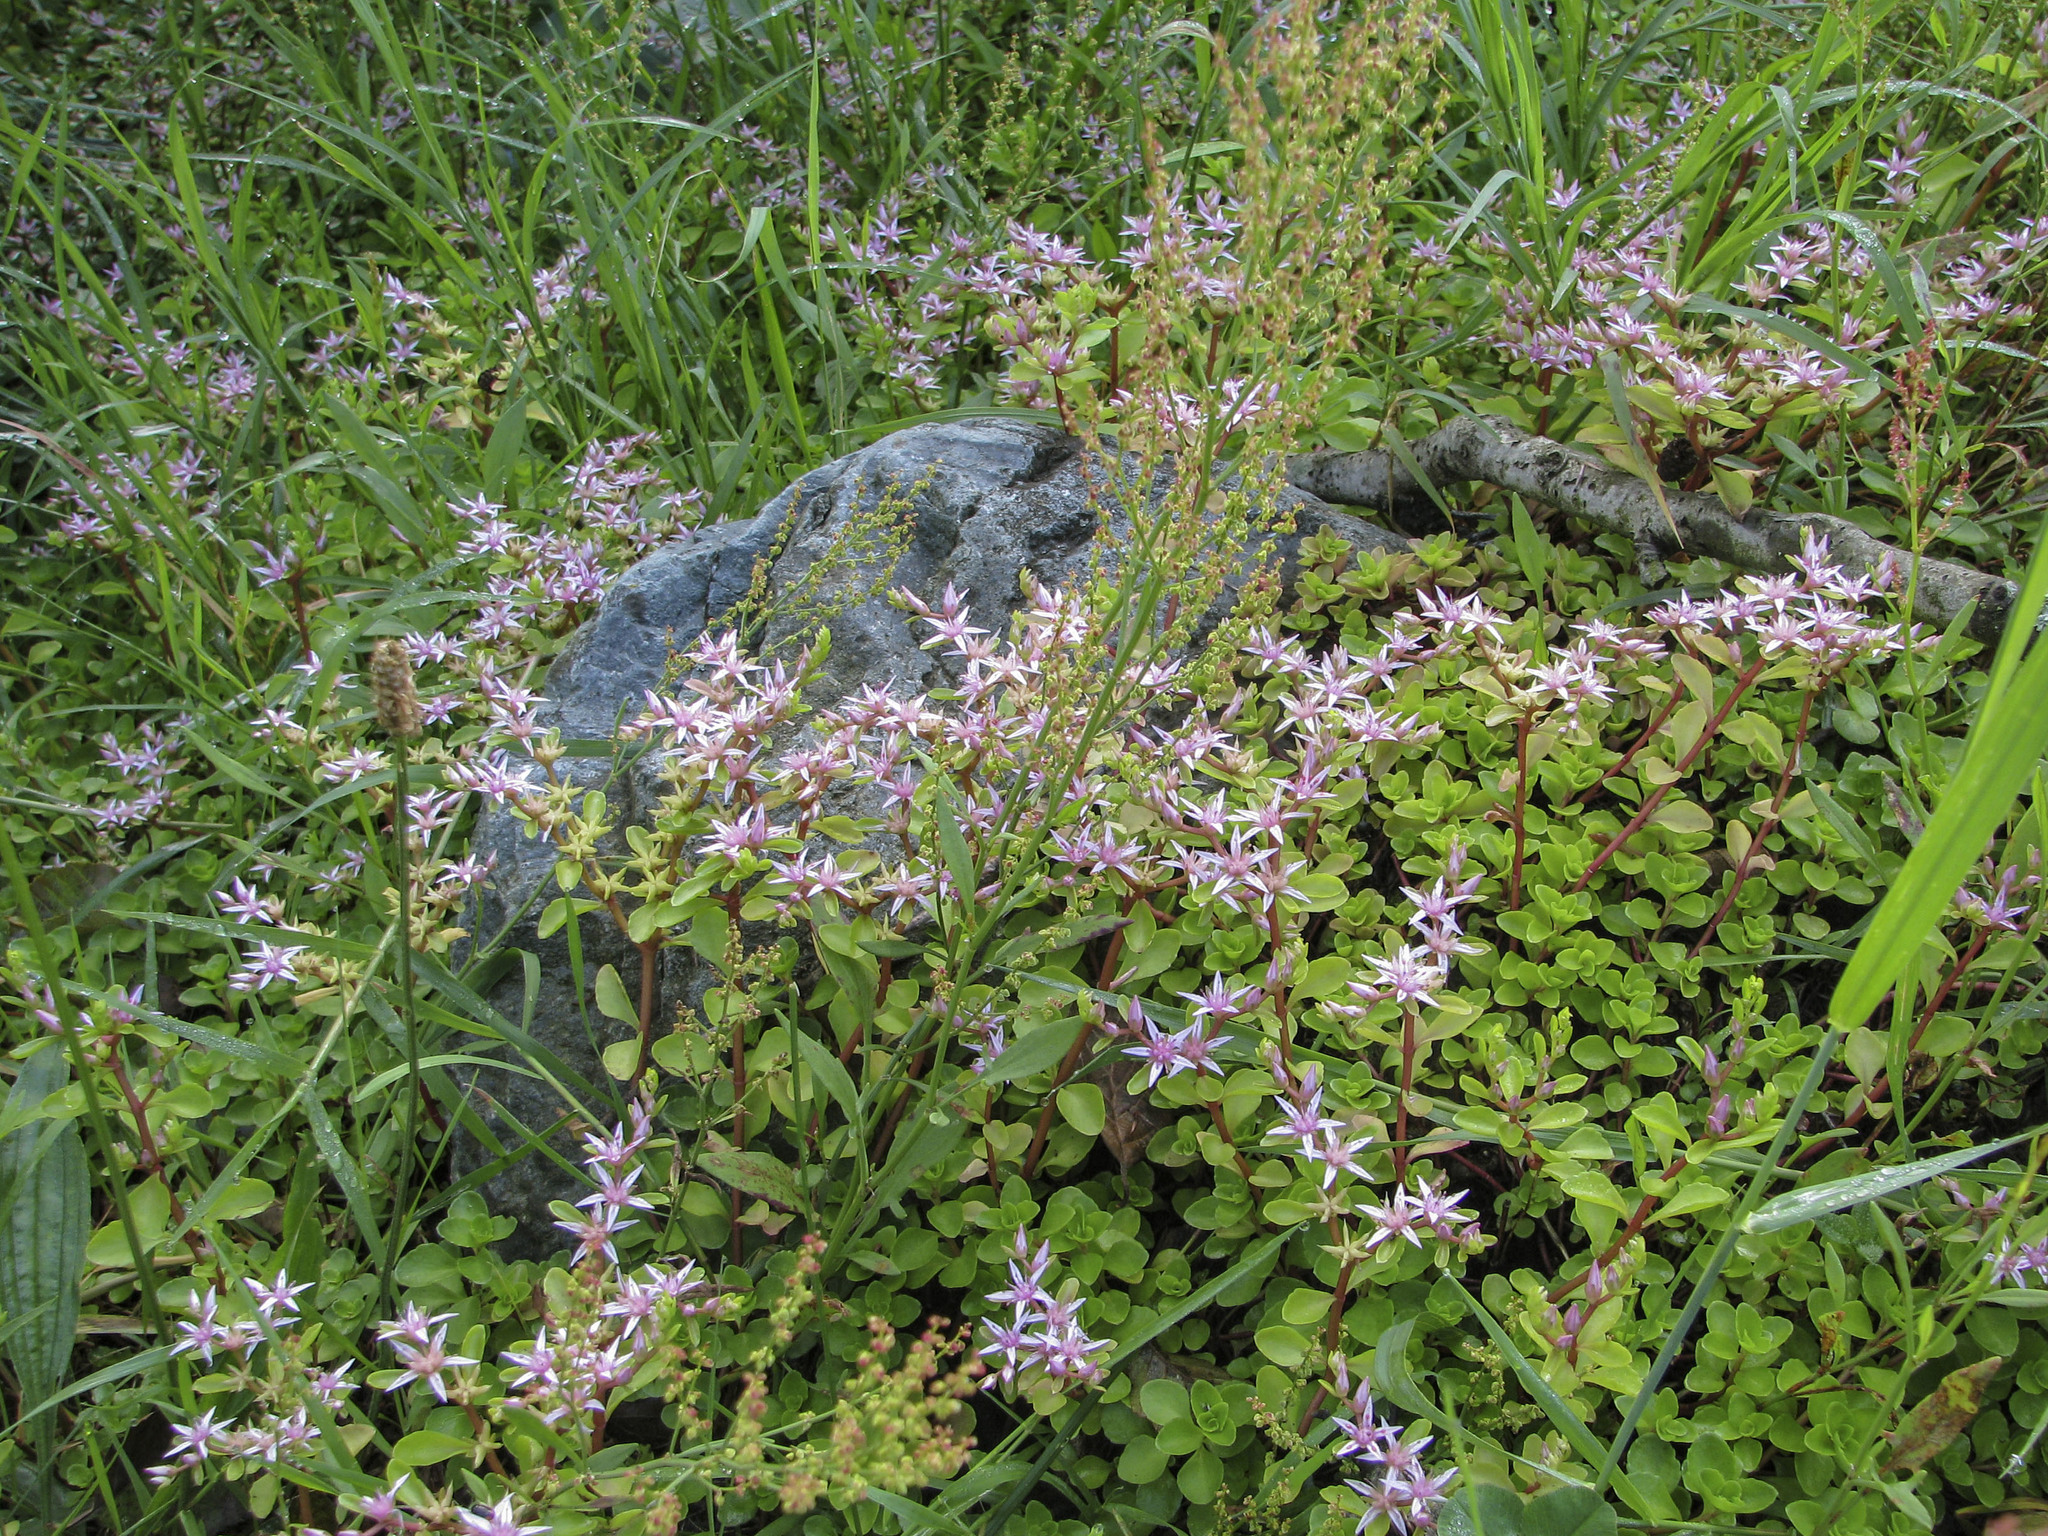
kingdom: Plantae
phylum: Tracheophyta
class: Magnoliopsida
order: Saxifragales
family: Crassulaceae
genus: Phedimus
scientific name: Phedimus stolonifer
